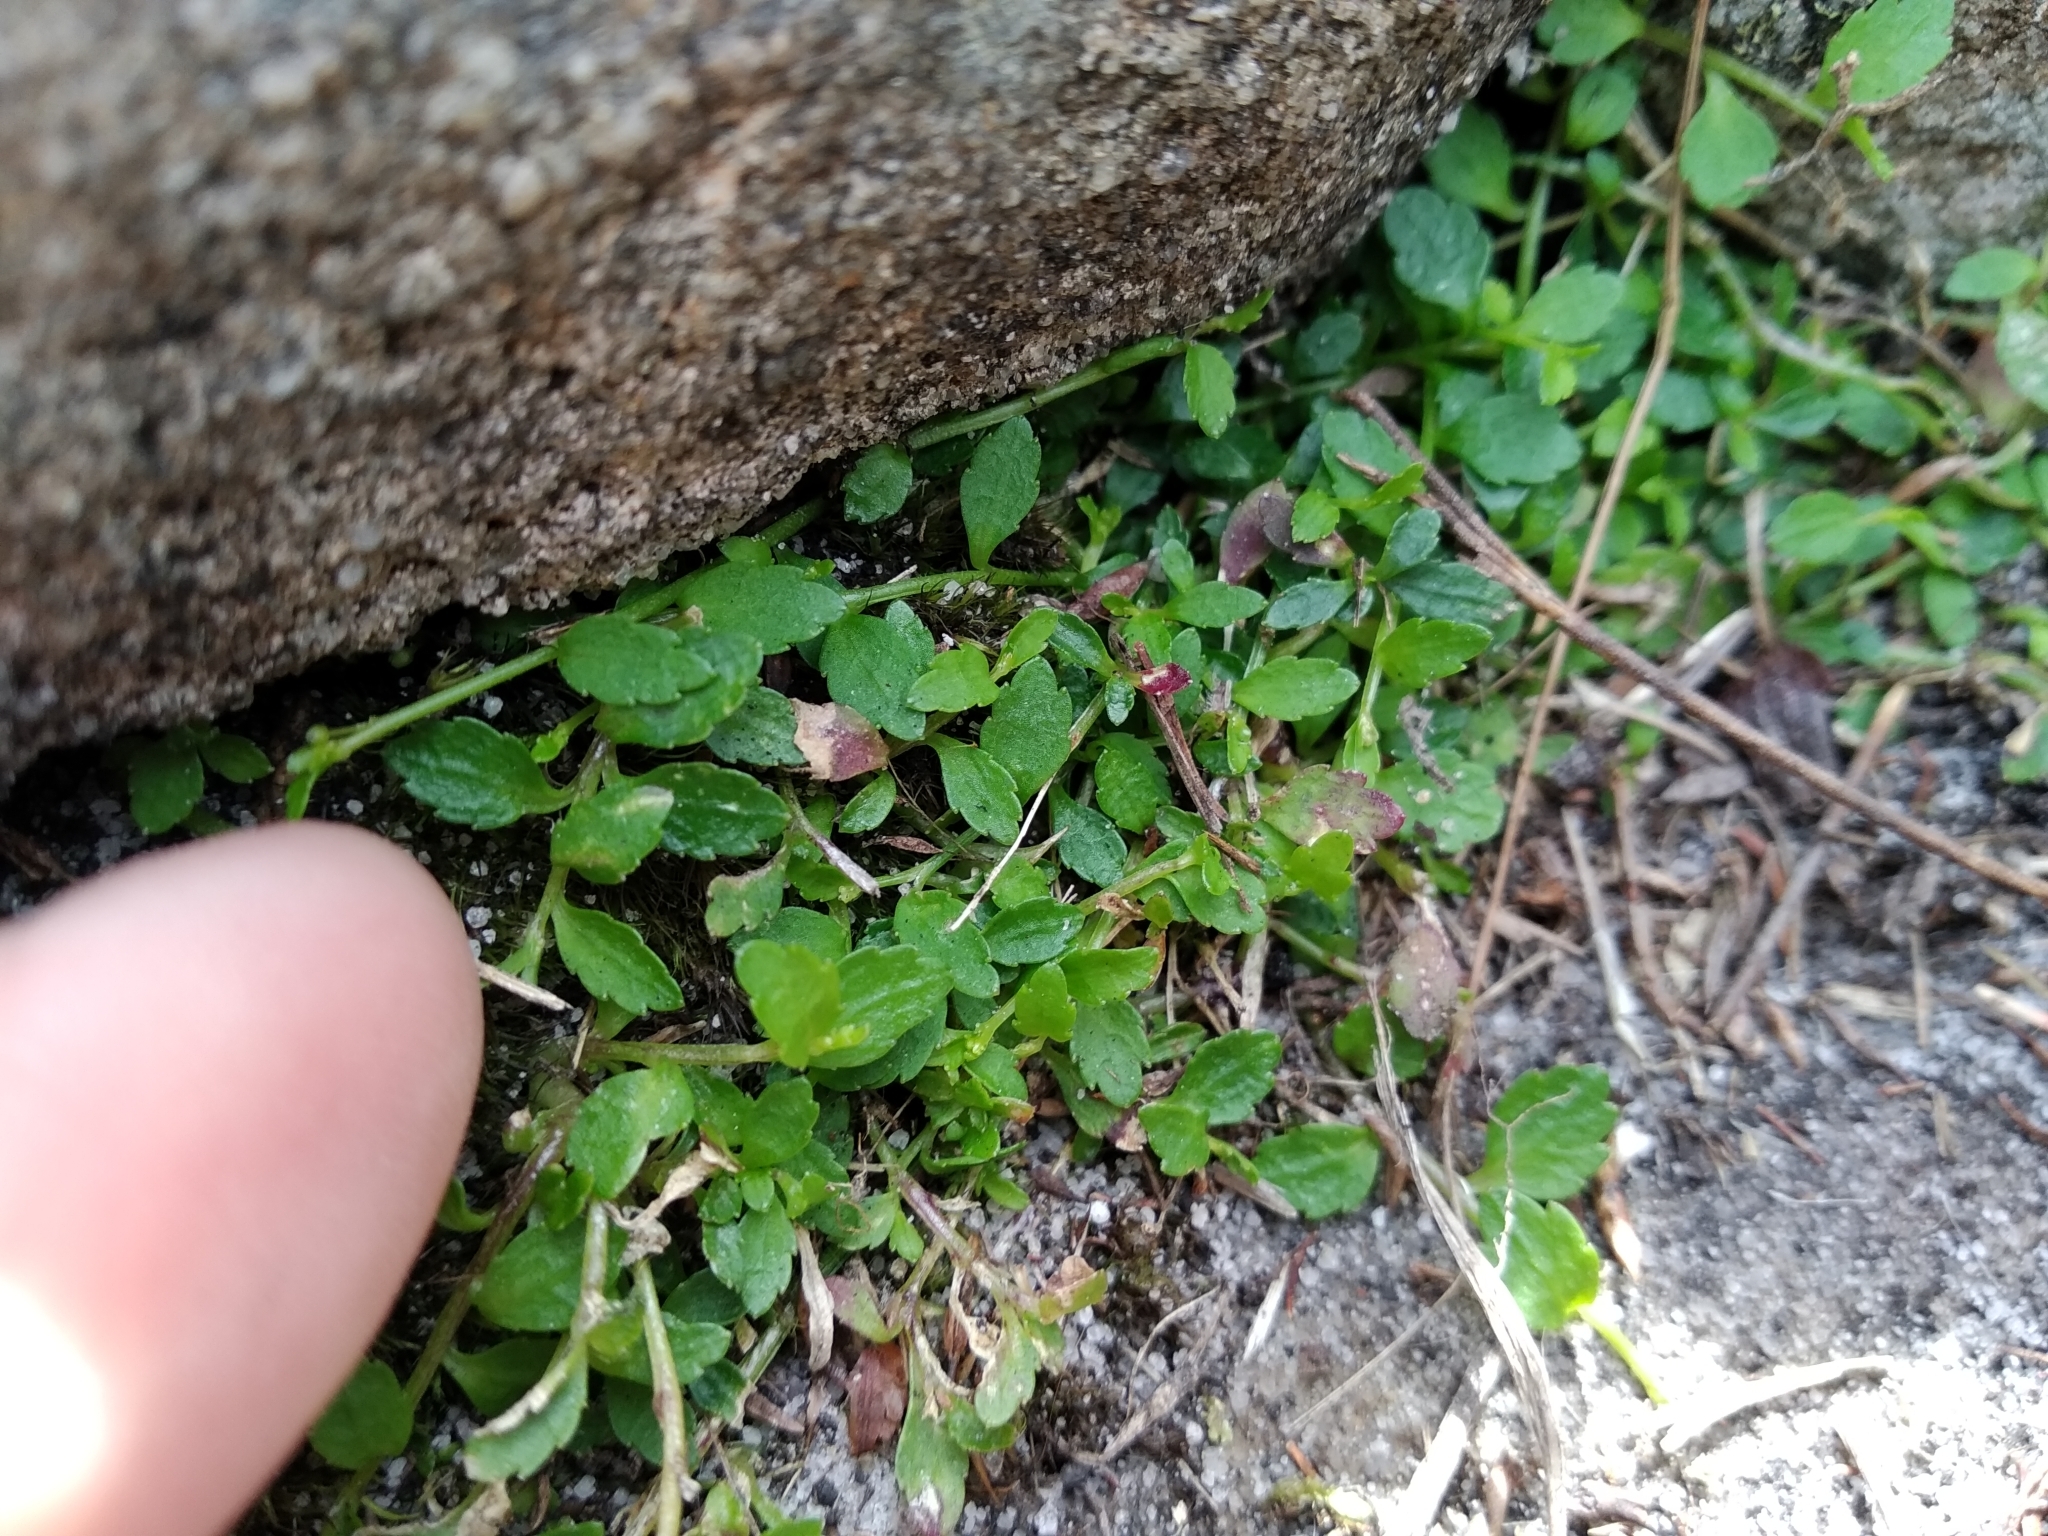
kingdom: Plantae
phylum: Tracheophyta
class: Magnoliopsida
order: Asterales
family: Campanulaceae
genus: Unigenes
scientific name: Unigenes humifusa
